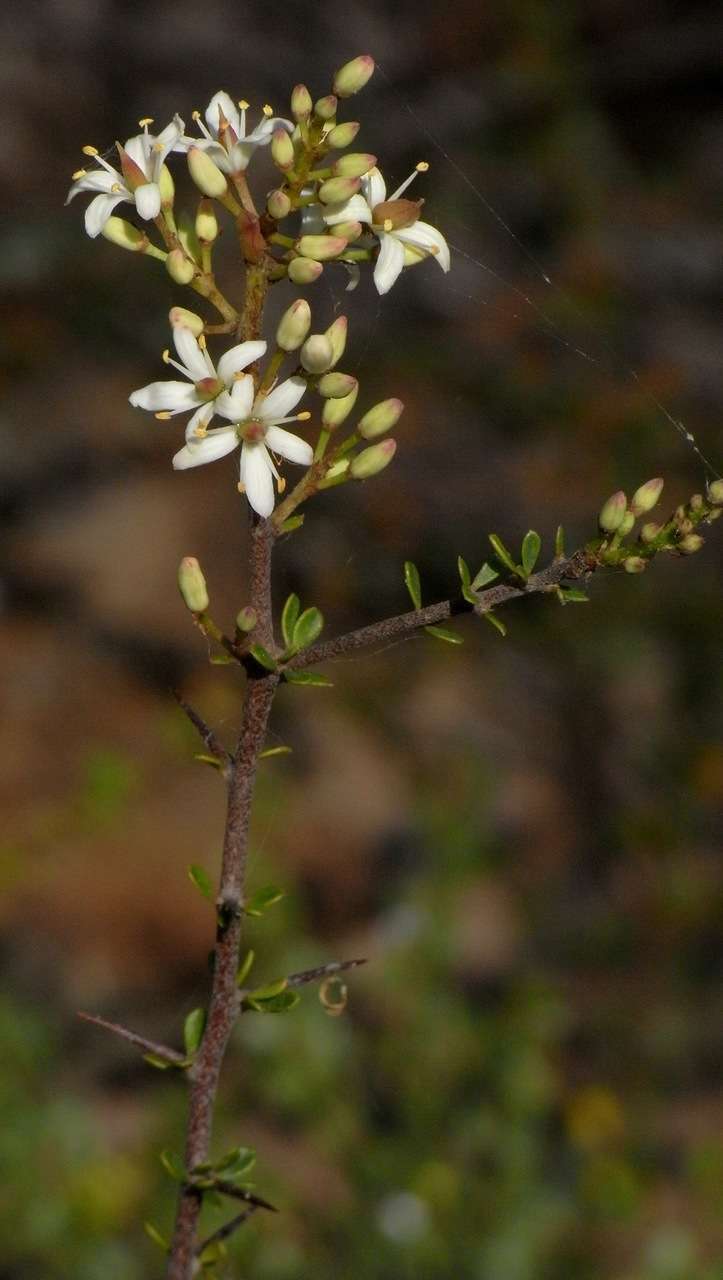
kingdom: Plantae
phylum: Tracheophyta
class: Magnoliopsida
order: Apiales
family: Pittosporaceae
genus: Bursaria
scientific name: Bursaria spinosa
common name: Australian blackthorn
